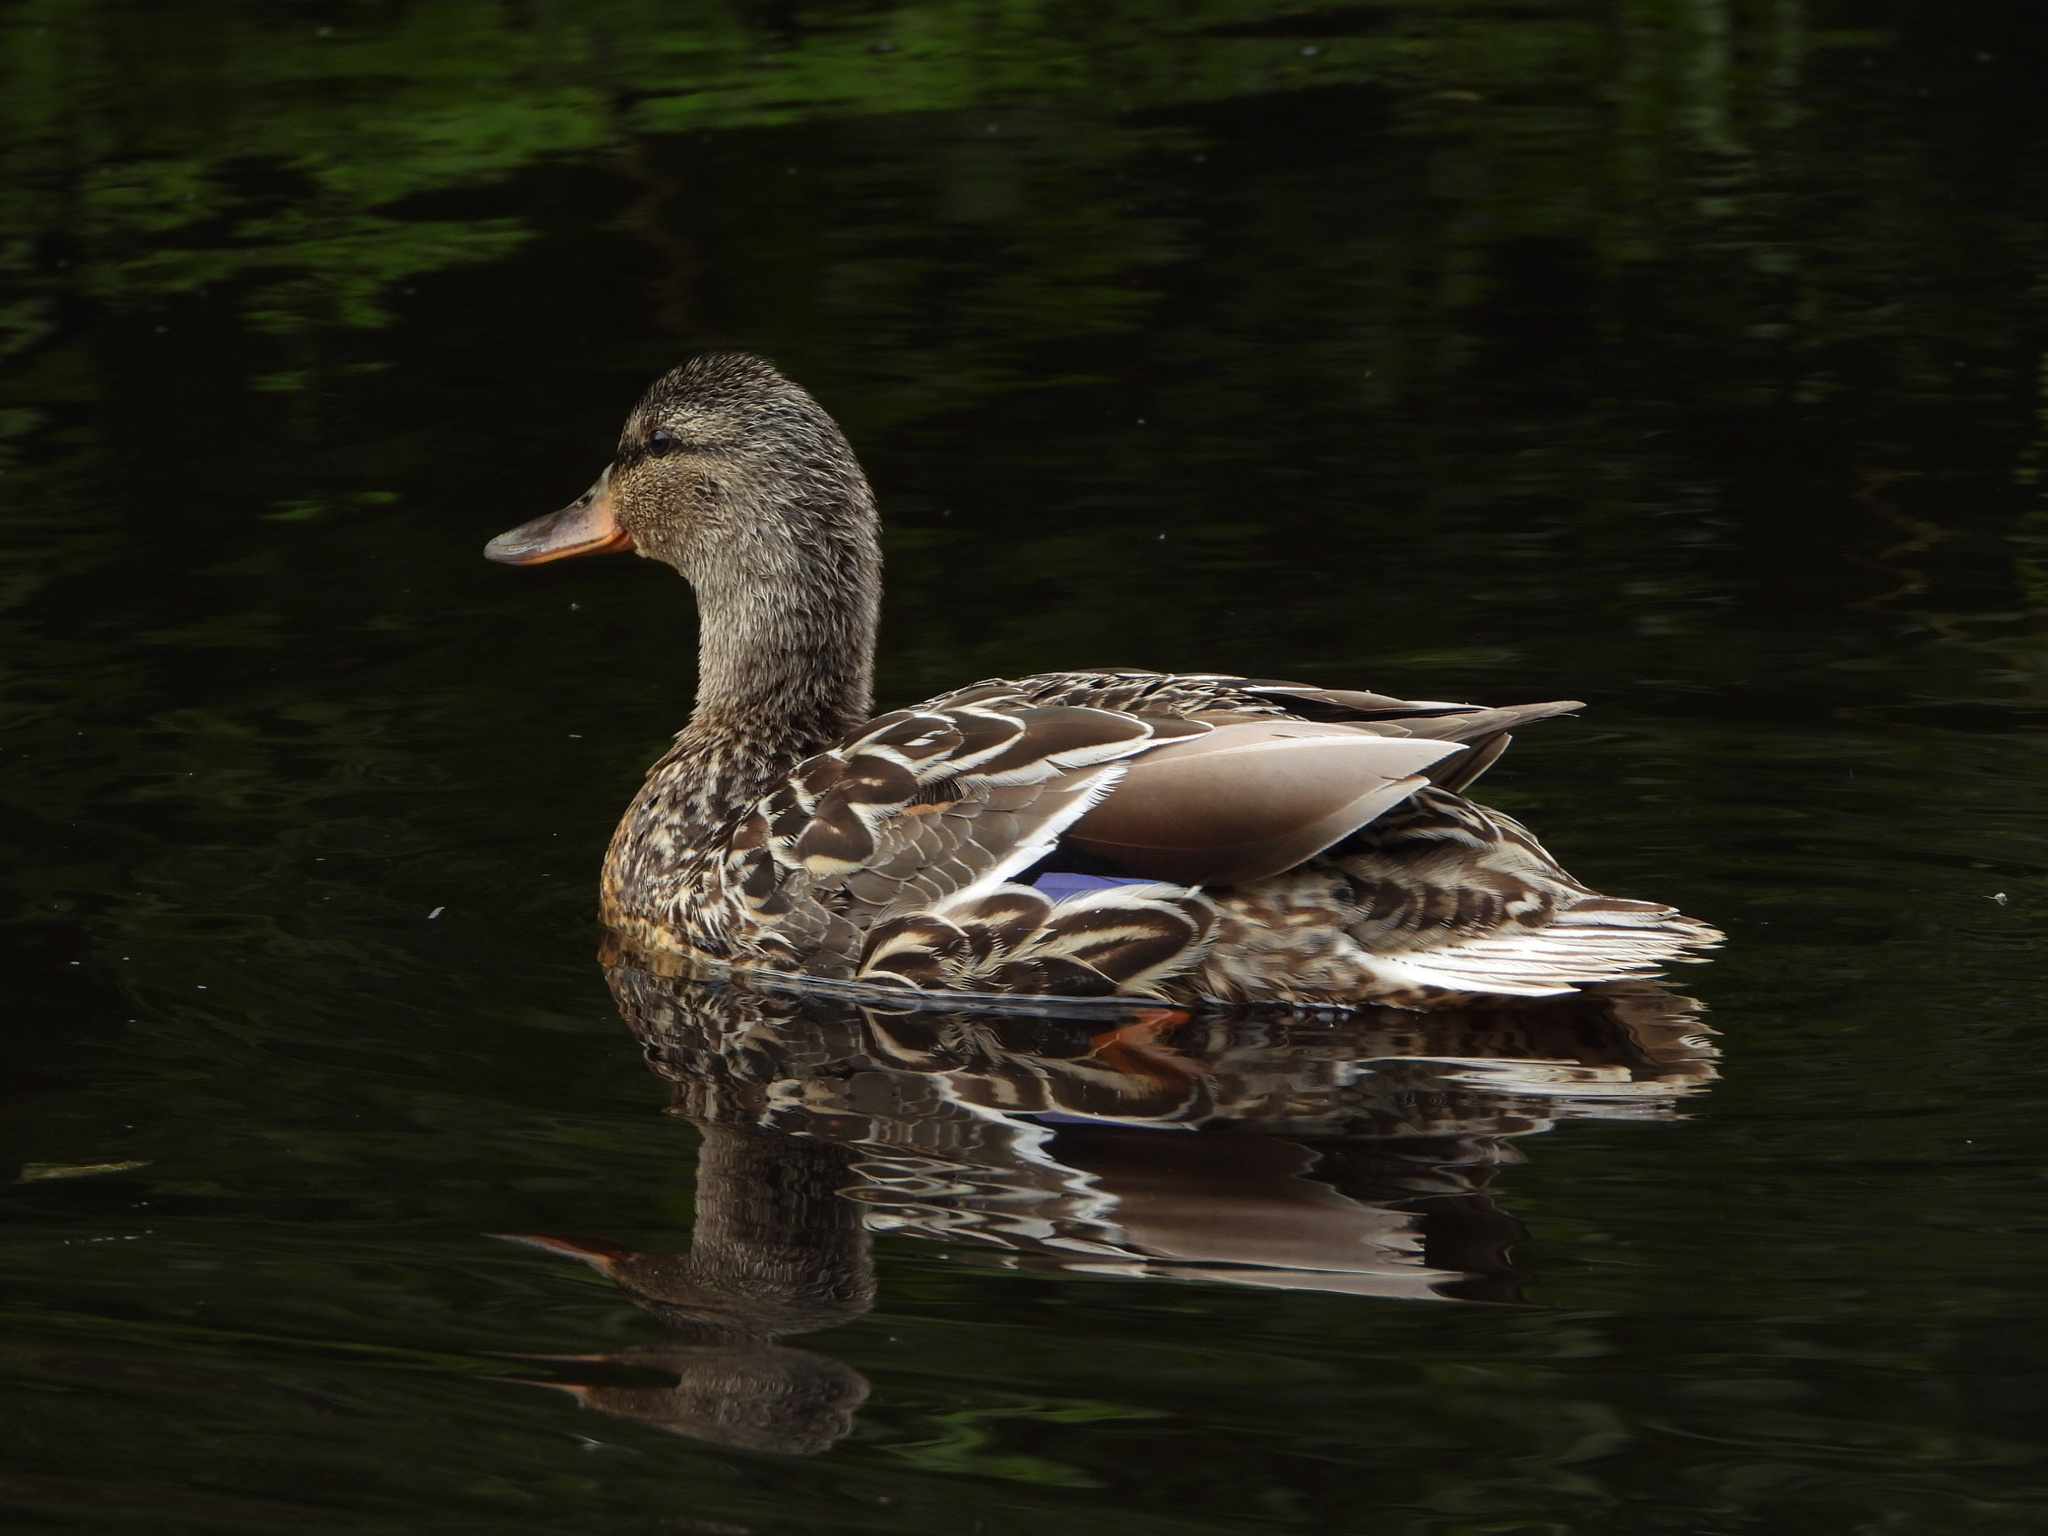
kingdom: Animalia
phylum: Chordata
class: Aves
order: Anseriformes
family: Anatidae
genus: Anas
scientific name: Anas platyrhynchos
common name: Mallard
